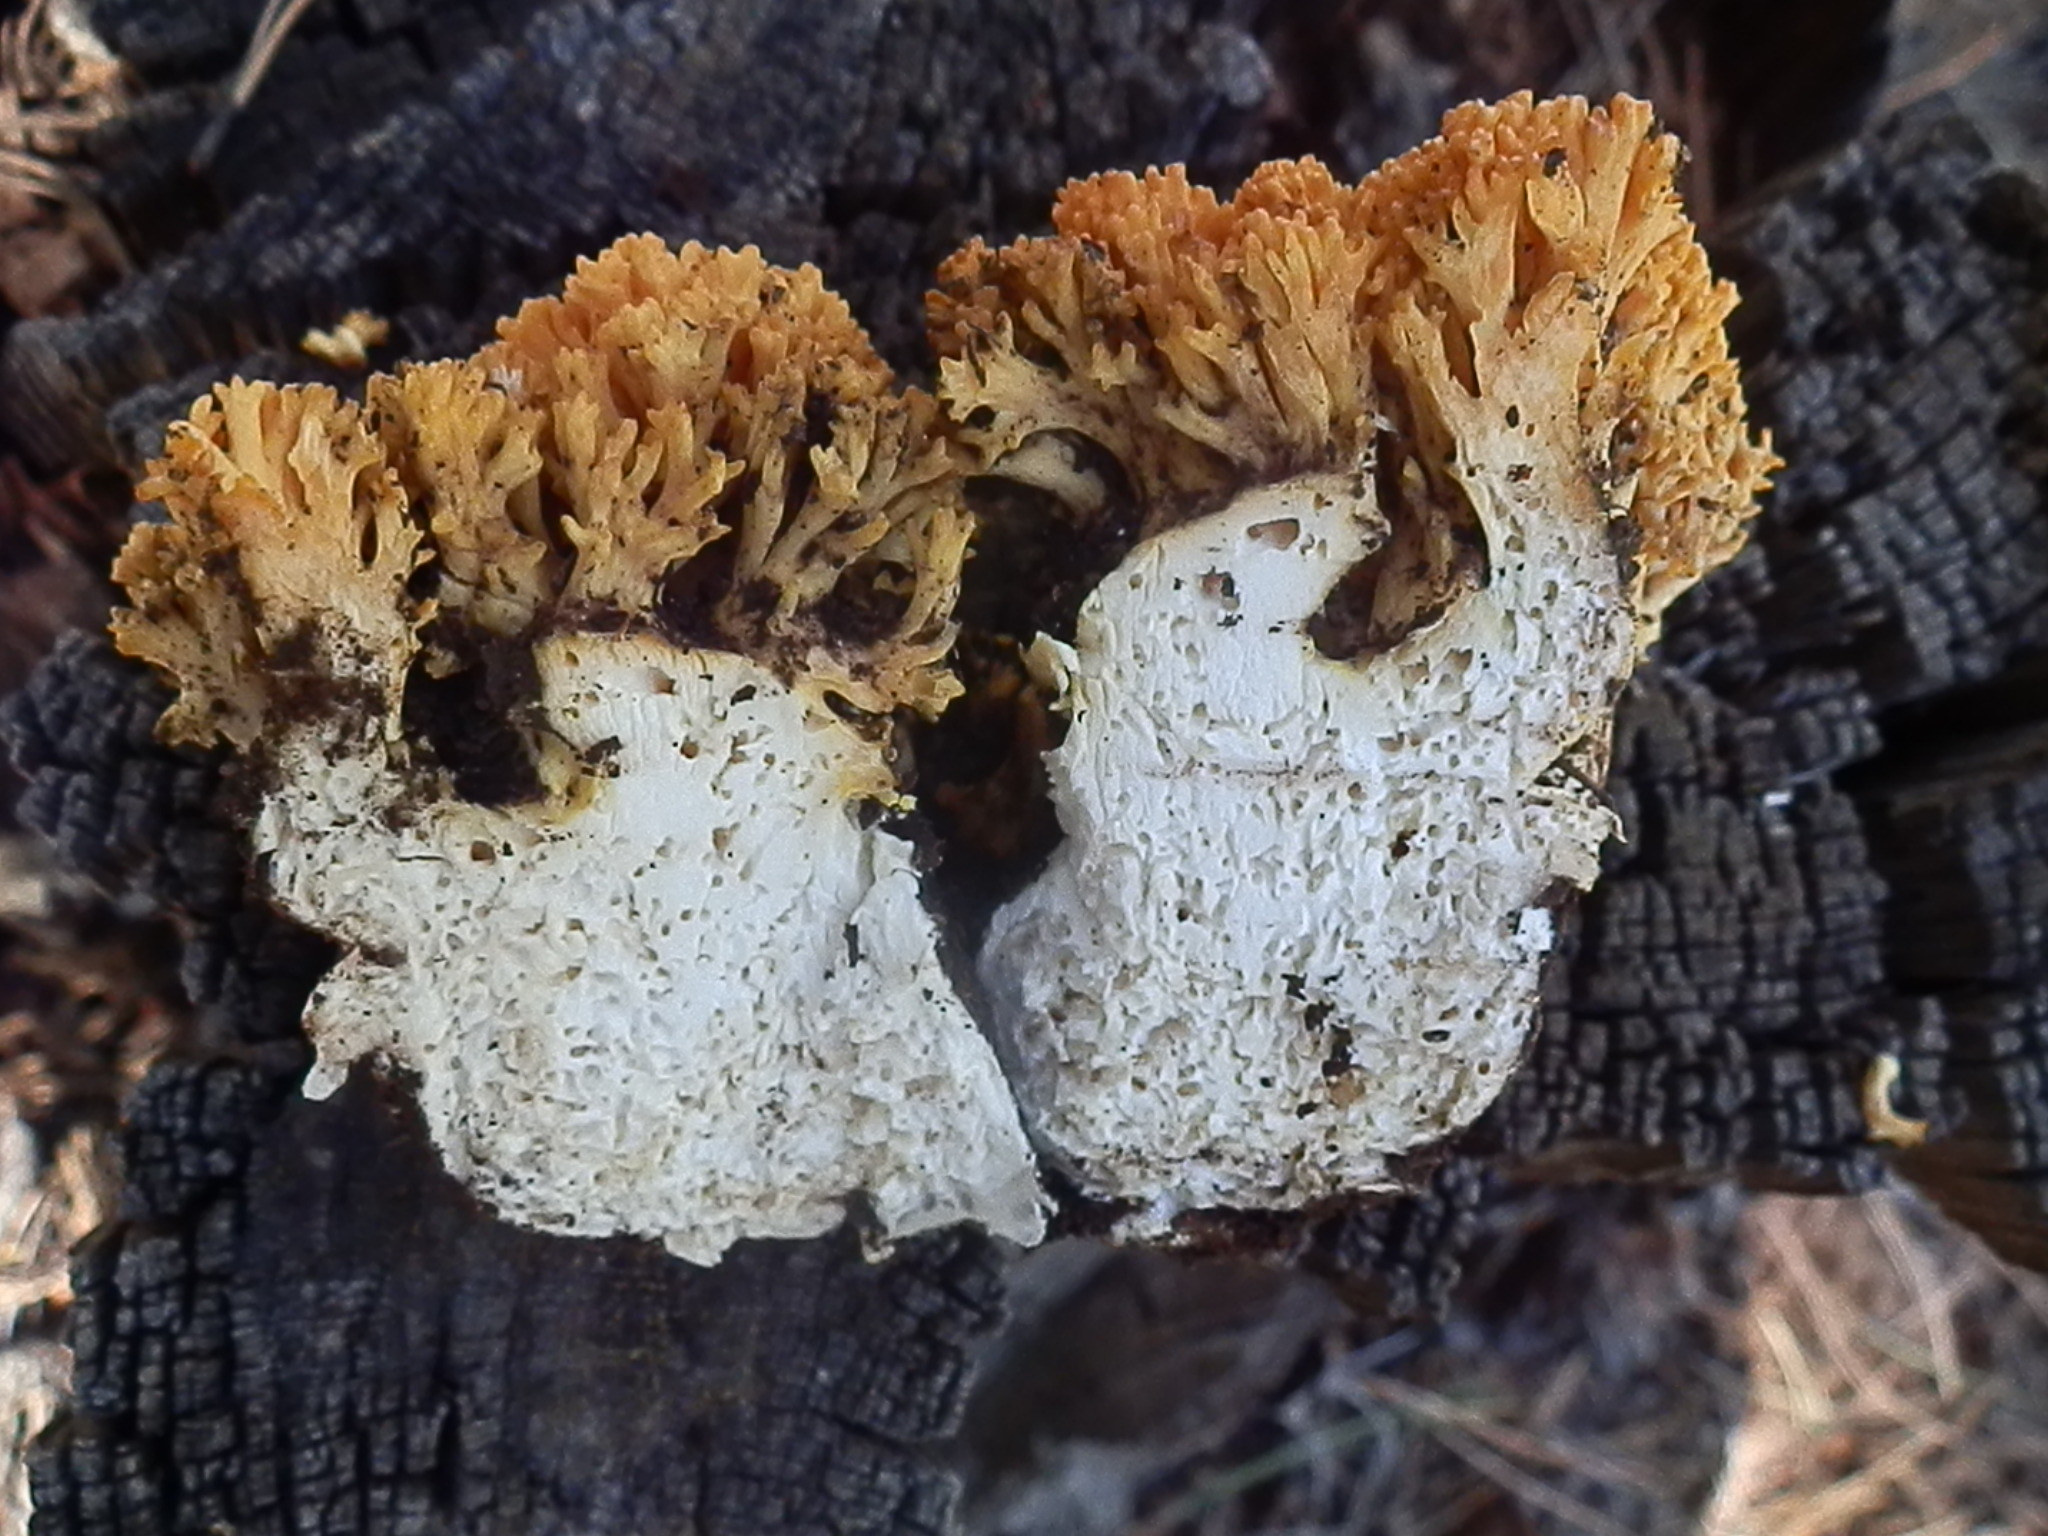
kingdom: Fungi
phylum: Basidiomycota
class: Agaricomycetes
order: Gomphales
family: Gomphaceae
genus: Ramaria
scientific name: Ramaria aurantiisiccescens
